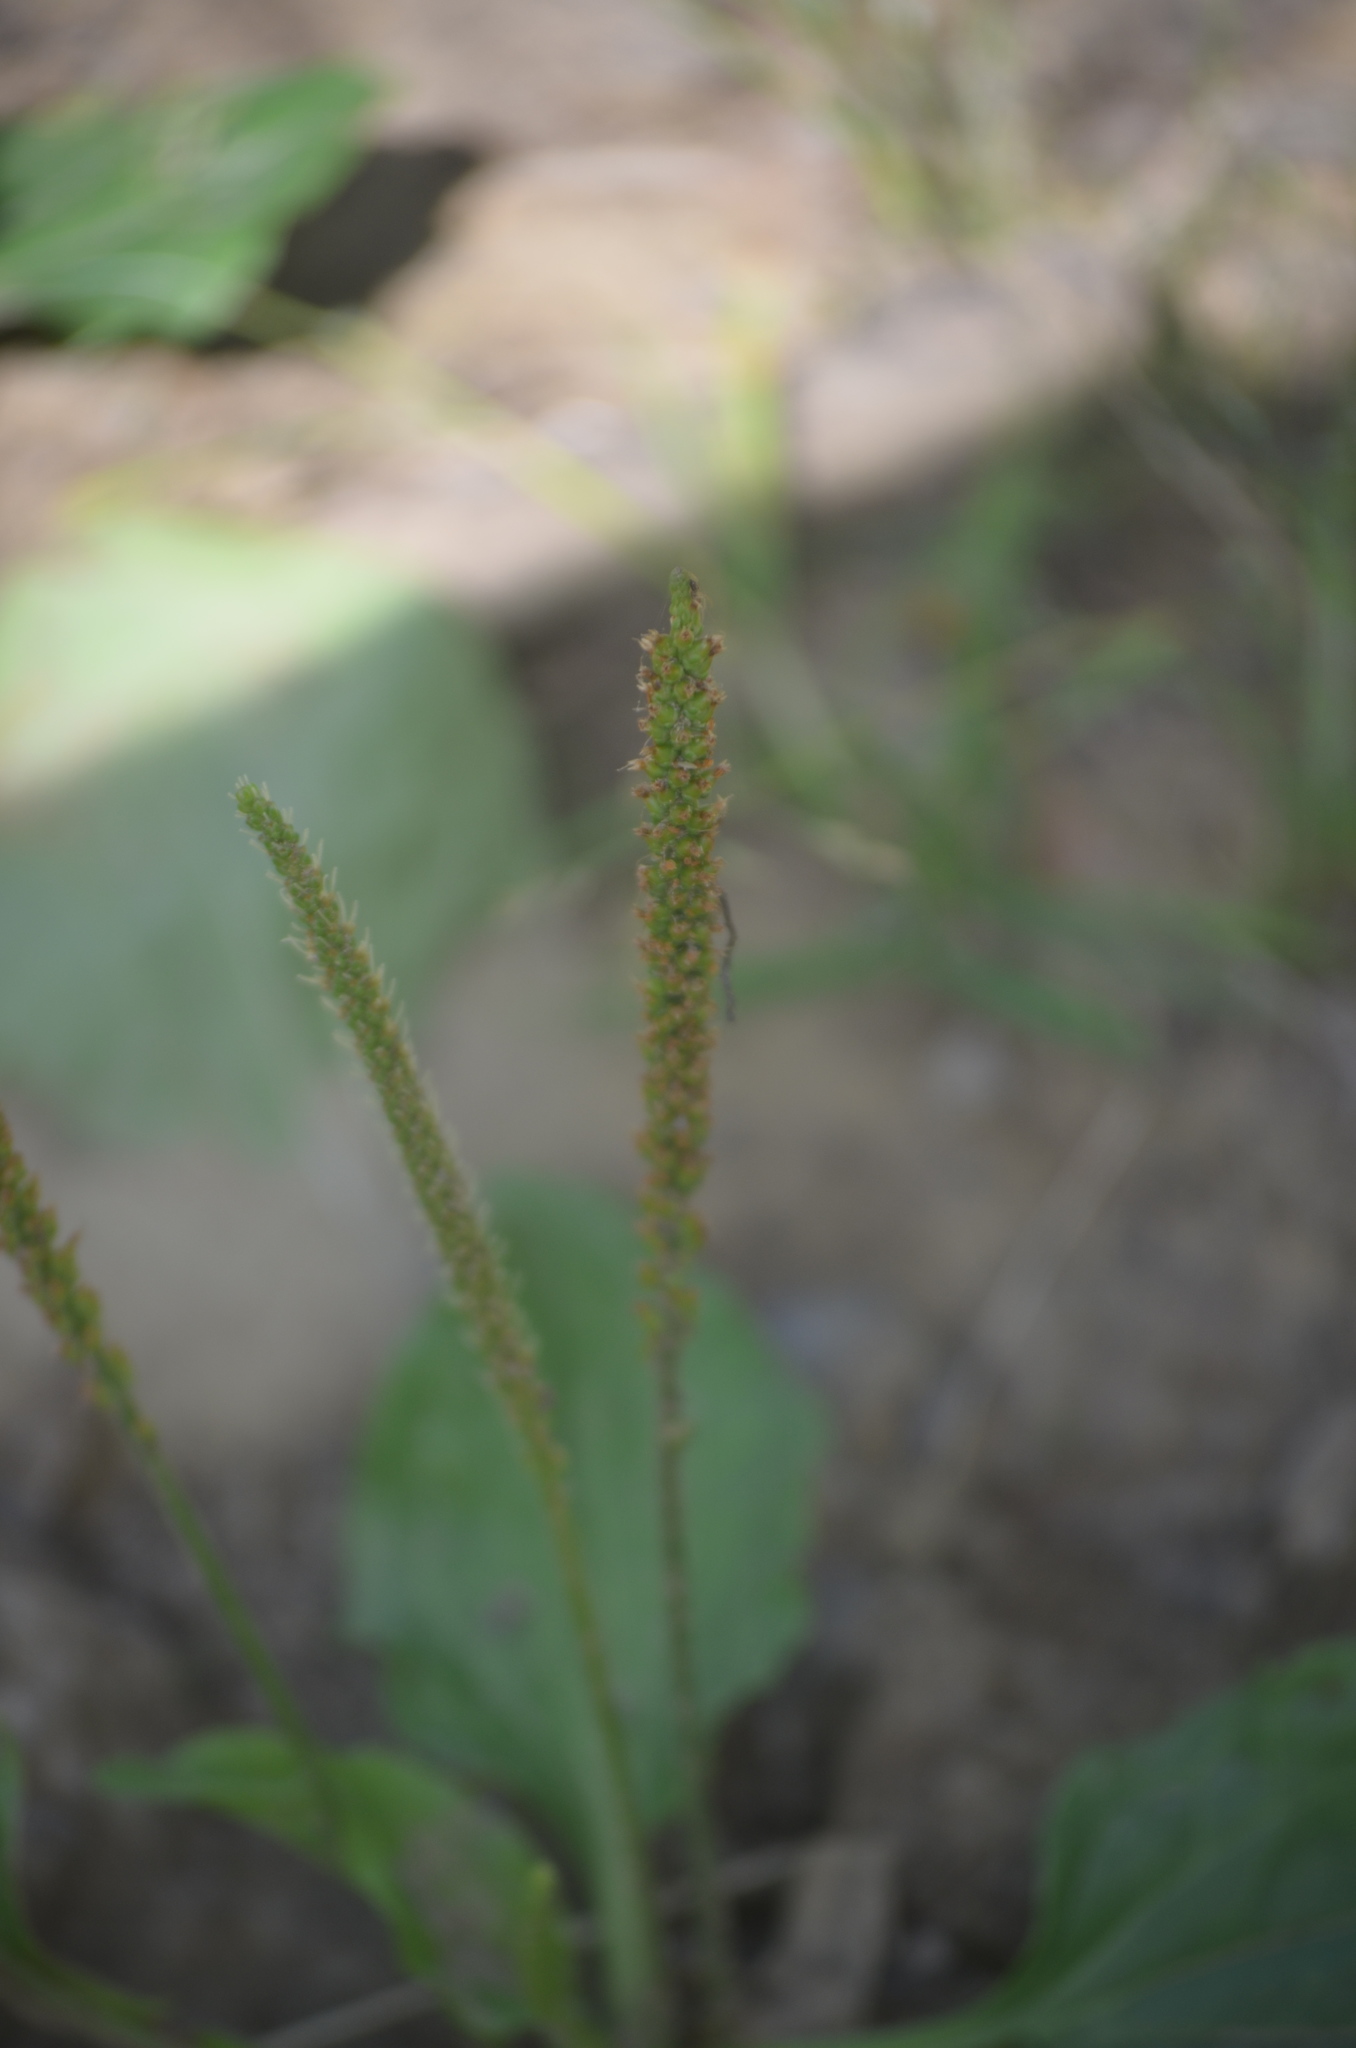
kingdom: Plantae
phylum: Tracheophyta
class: Magnoliopsida
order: Lamiales
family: Plantaginaceae
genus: Plantago
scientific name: Plantago major
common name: Common plantain
